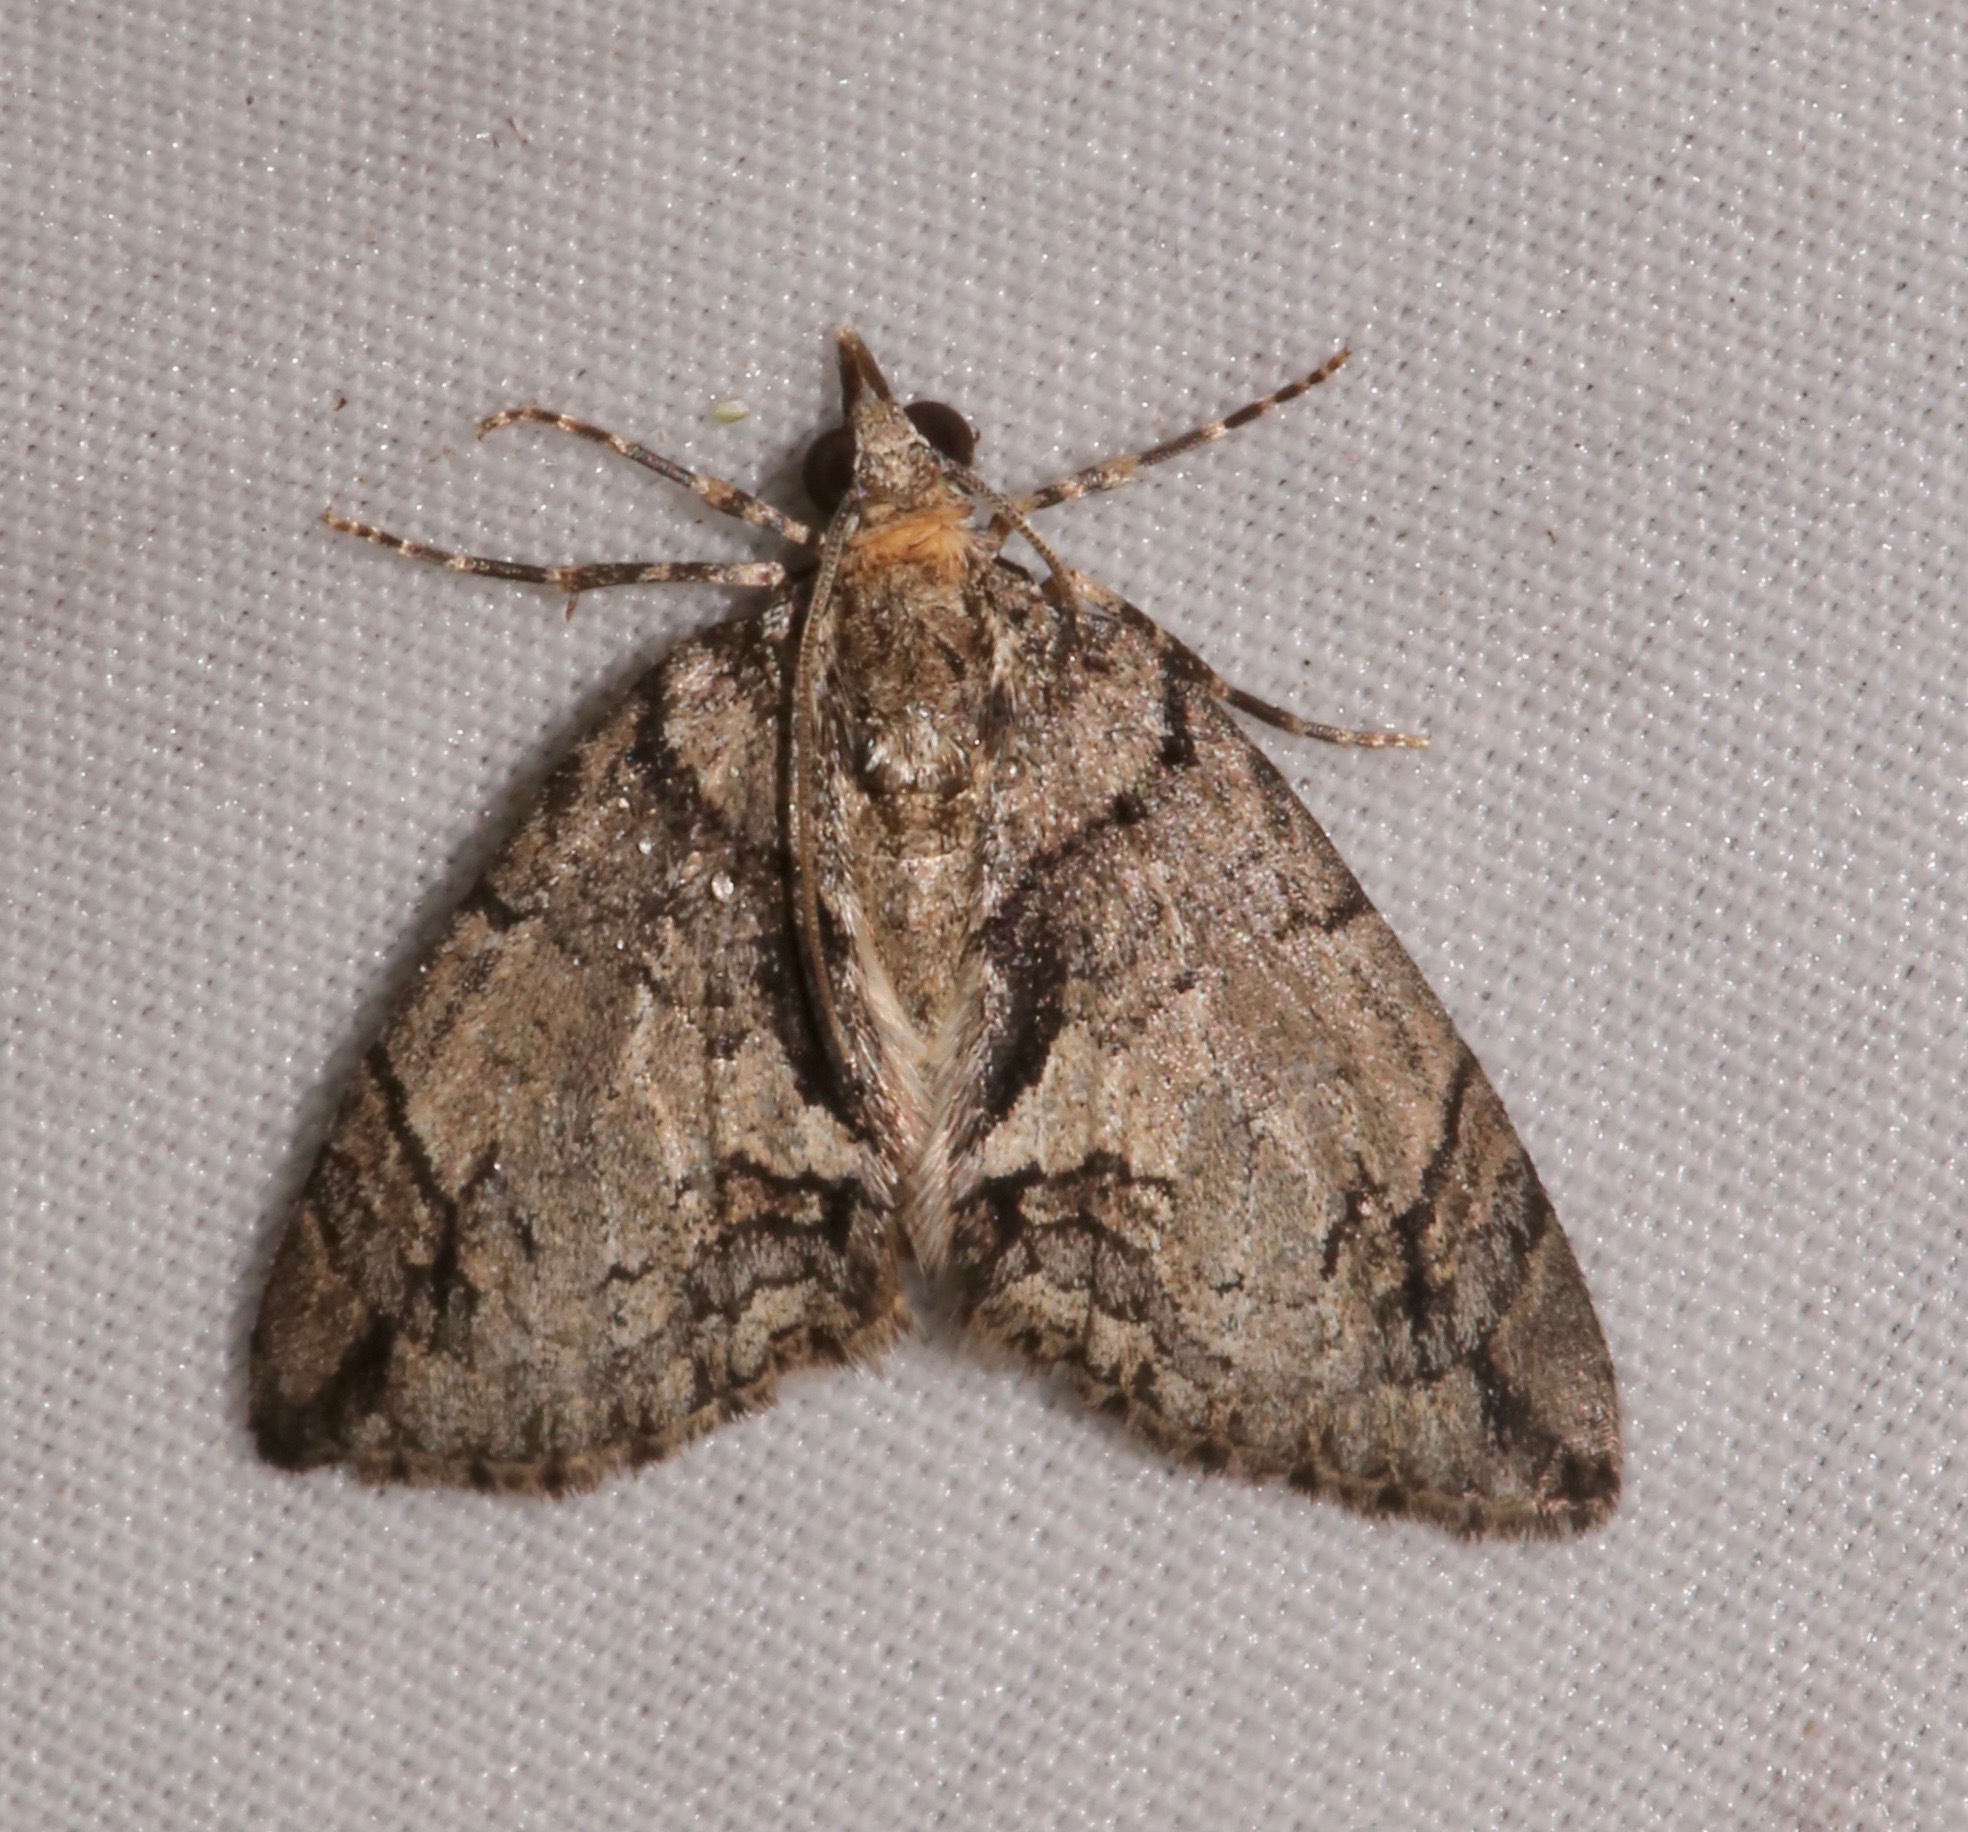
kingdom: Animalia
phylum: Arthropoda
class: Insecta
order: Lepidoptera
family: Geometridae
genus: Hydriomena
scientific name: Hydriomena chiricahuata
